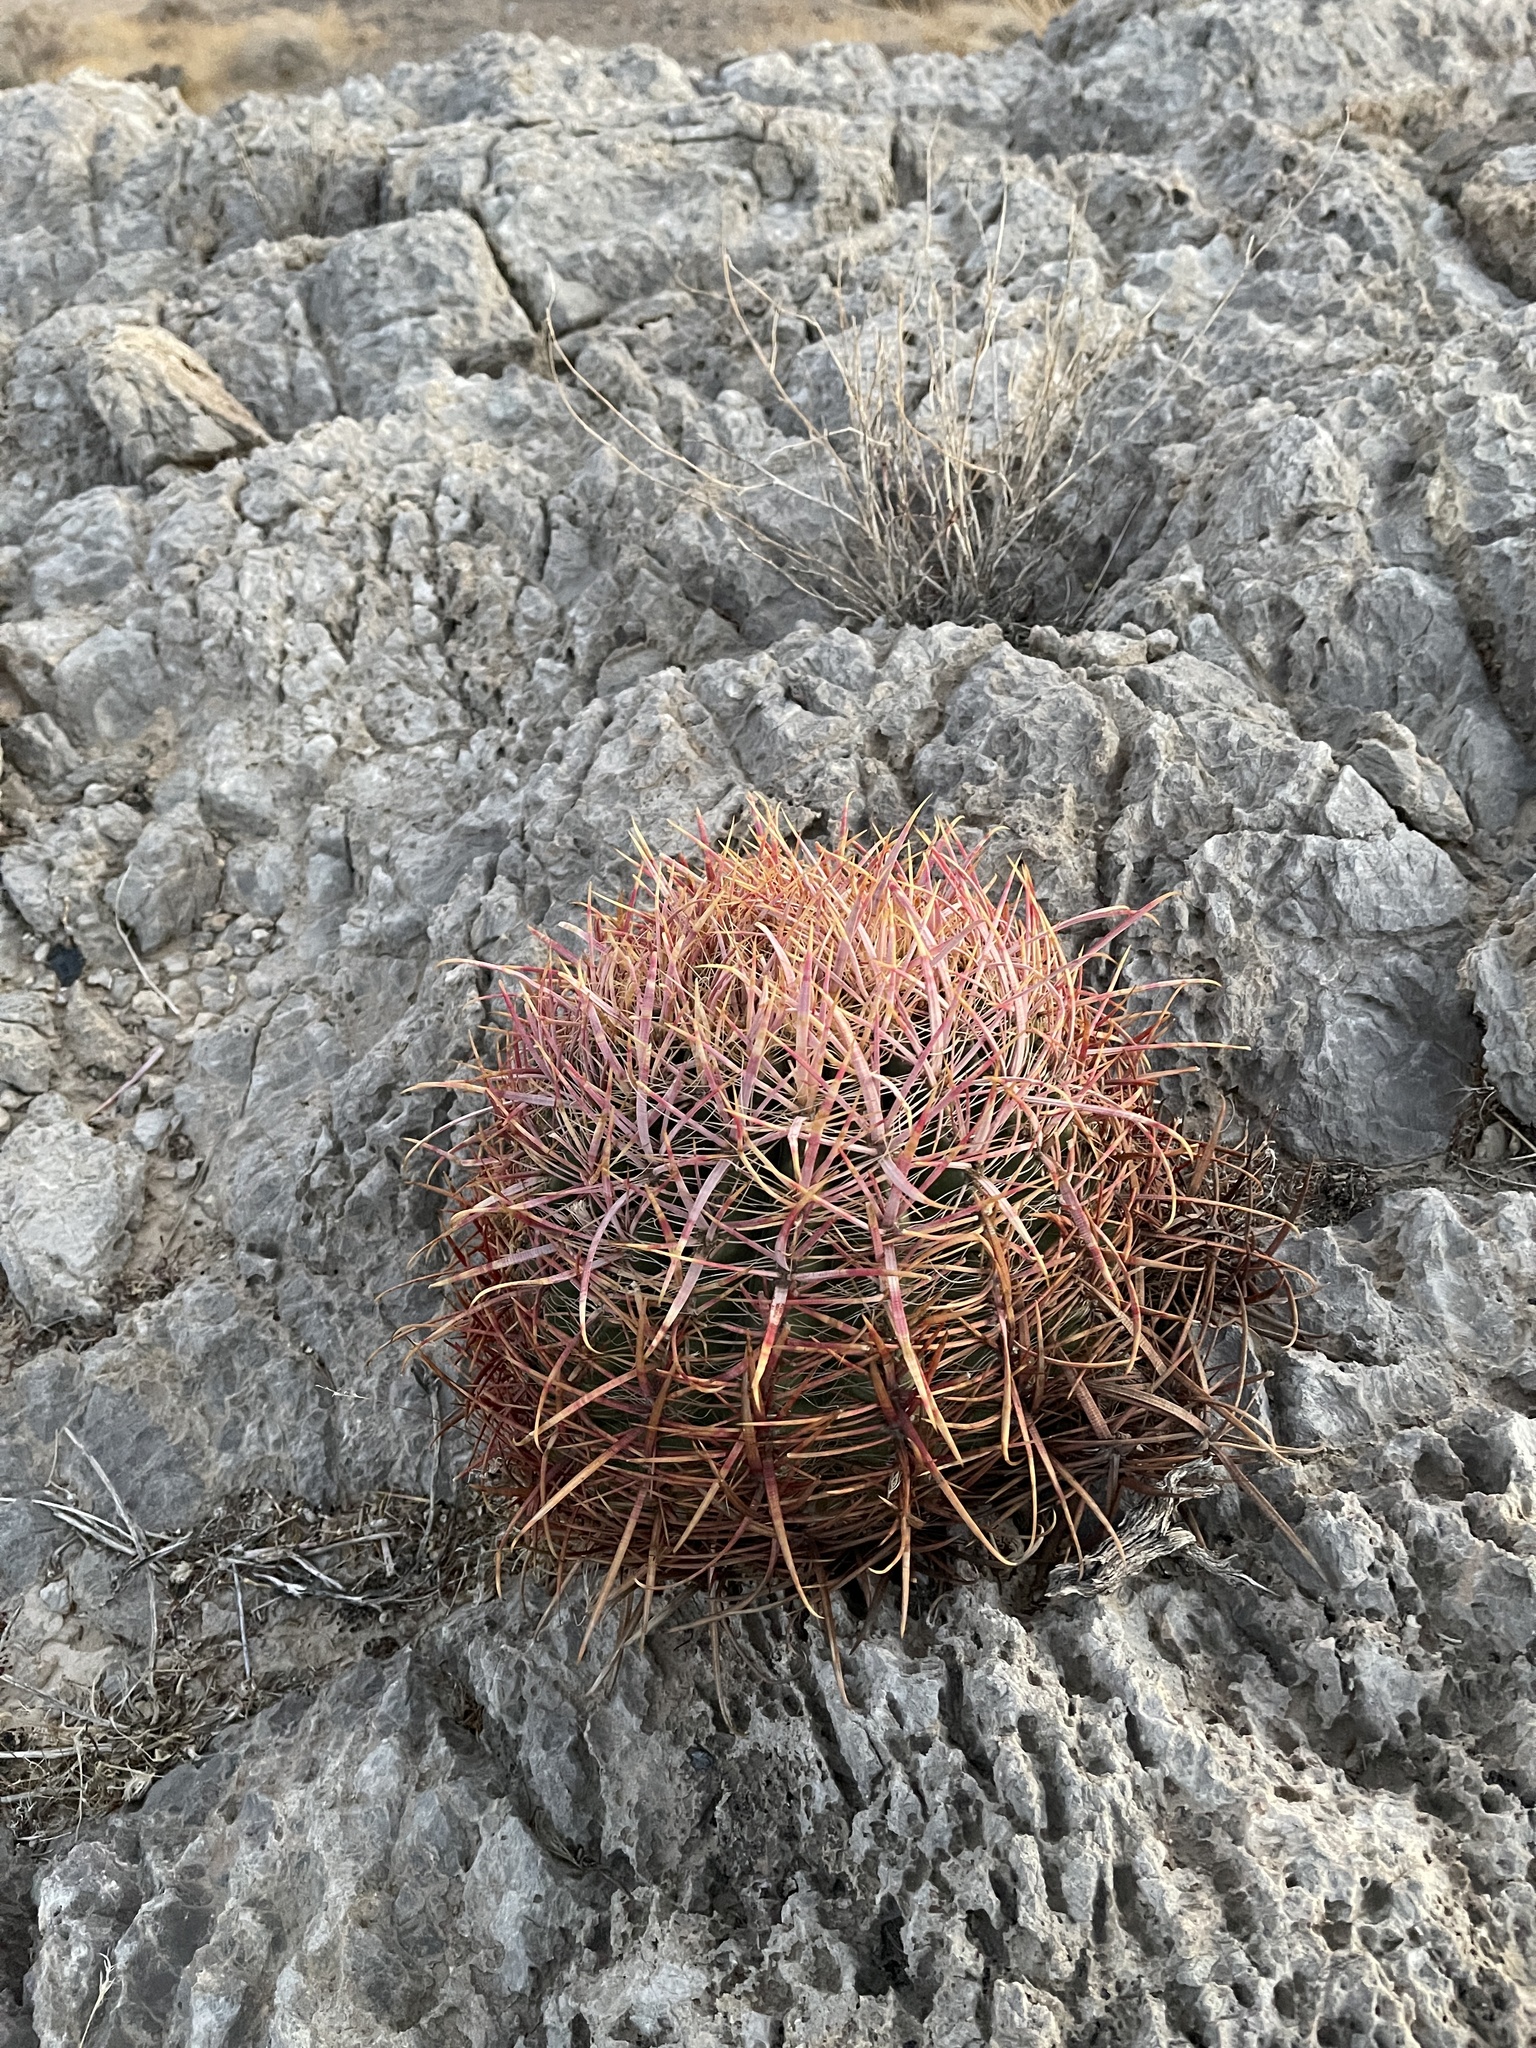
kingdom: Plantae
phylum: Tracheophyta
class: Magnoliopsida
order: Caryophyllales
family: Cactaceae
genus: Ferocactus
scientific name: Ferocactus cylindraceus
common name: California barrel cactus
